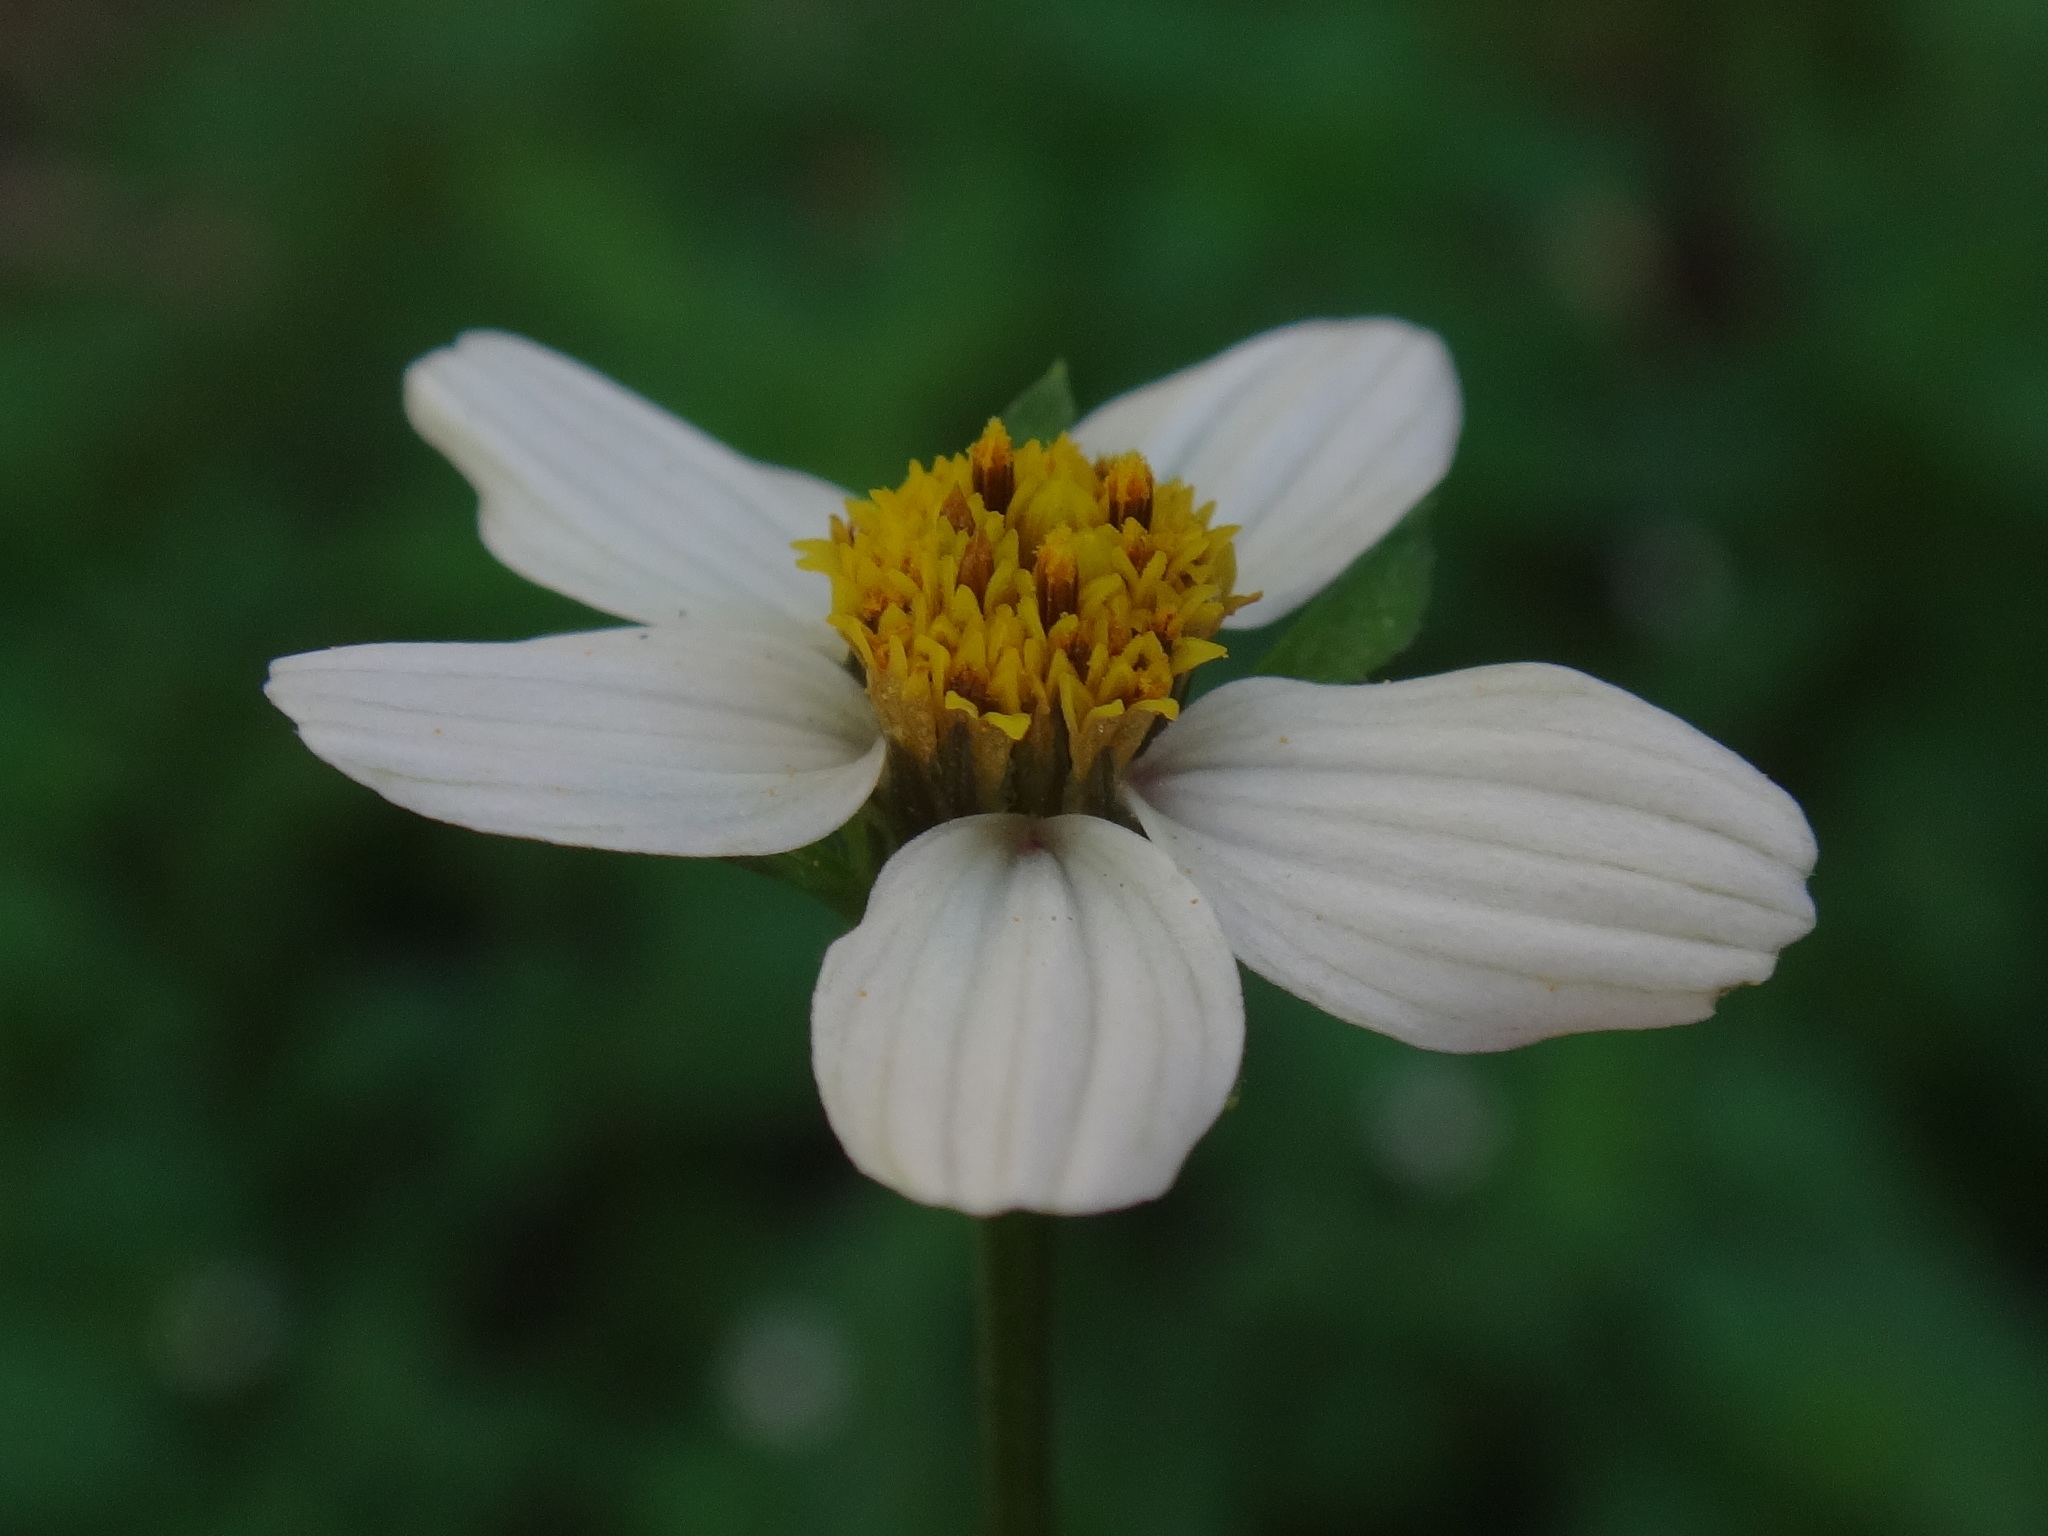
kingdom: Plantae
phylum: Tracheophyta
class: Magnoliopsida
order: Asterales
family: Asteraceae
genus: Bidens
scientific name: Bidens pilosa
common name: Black-jack
